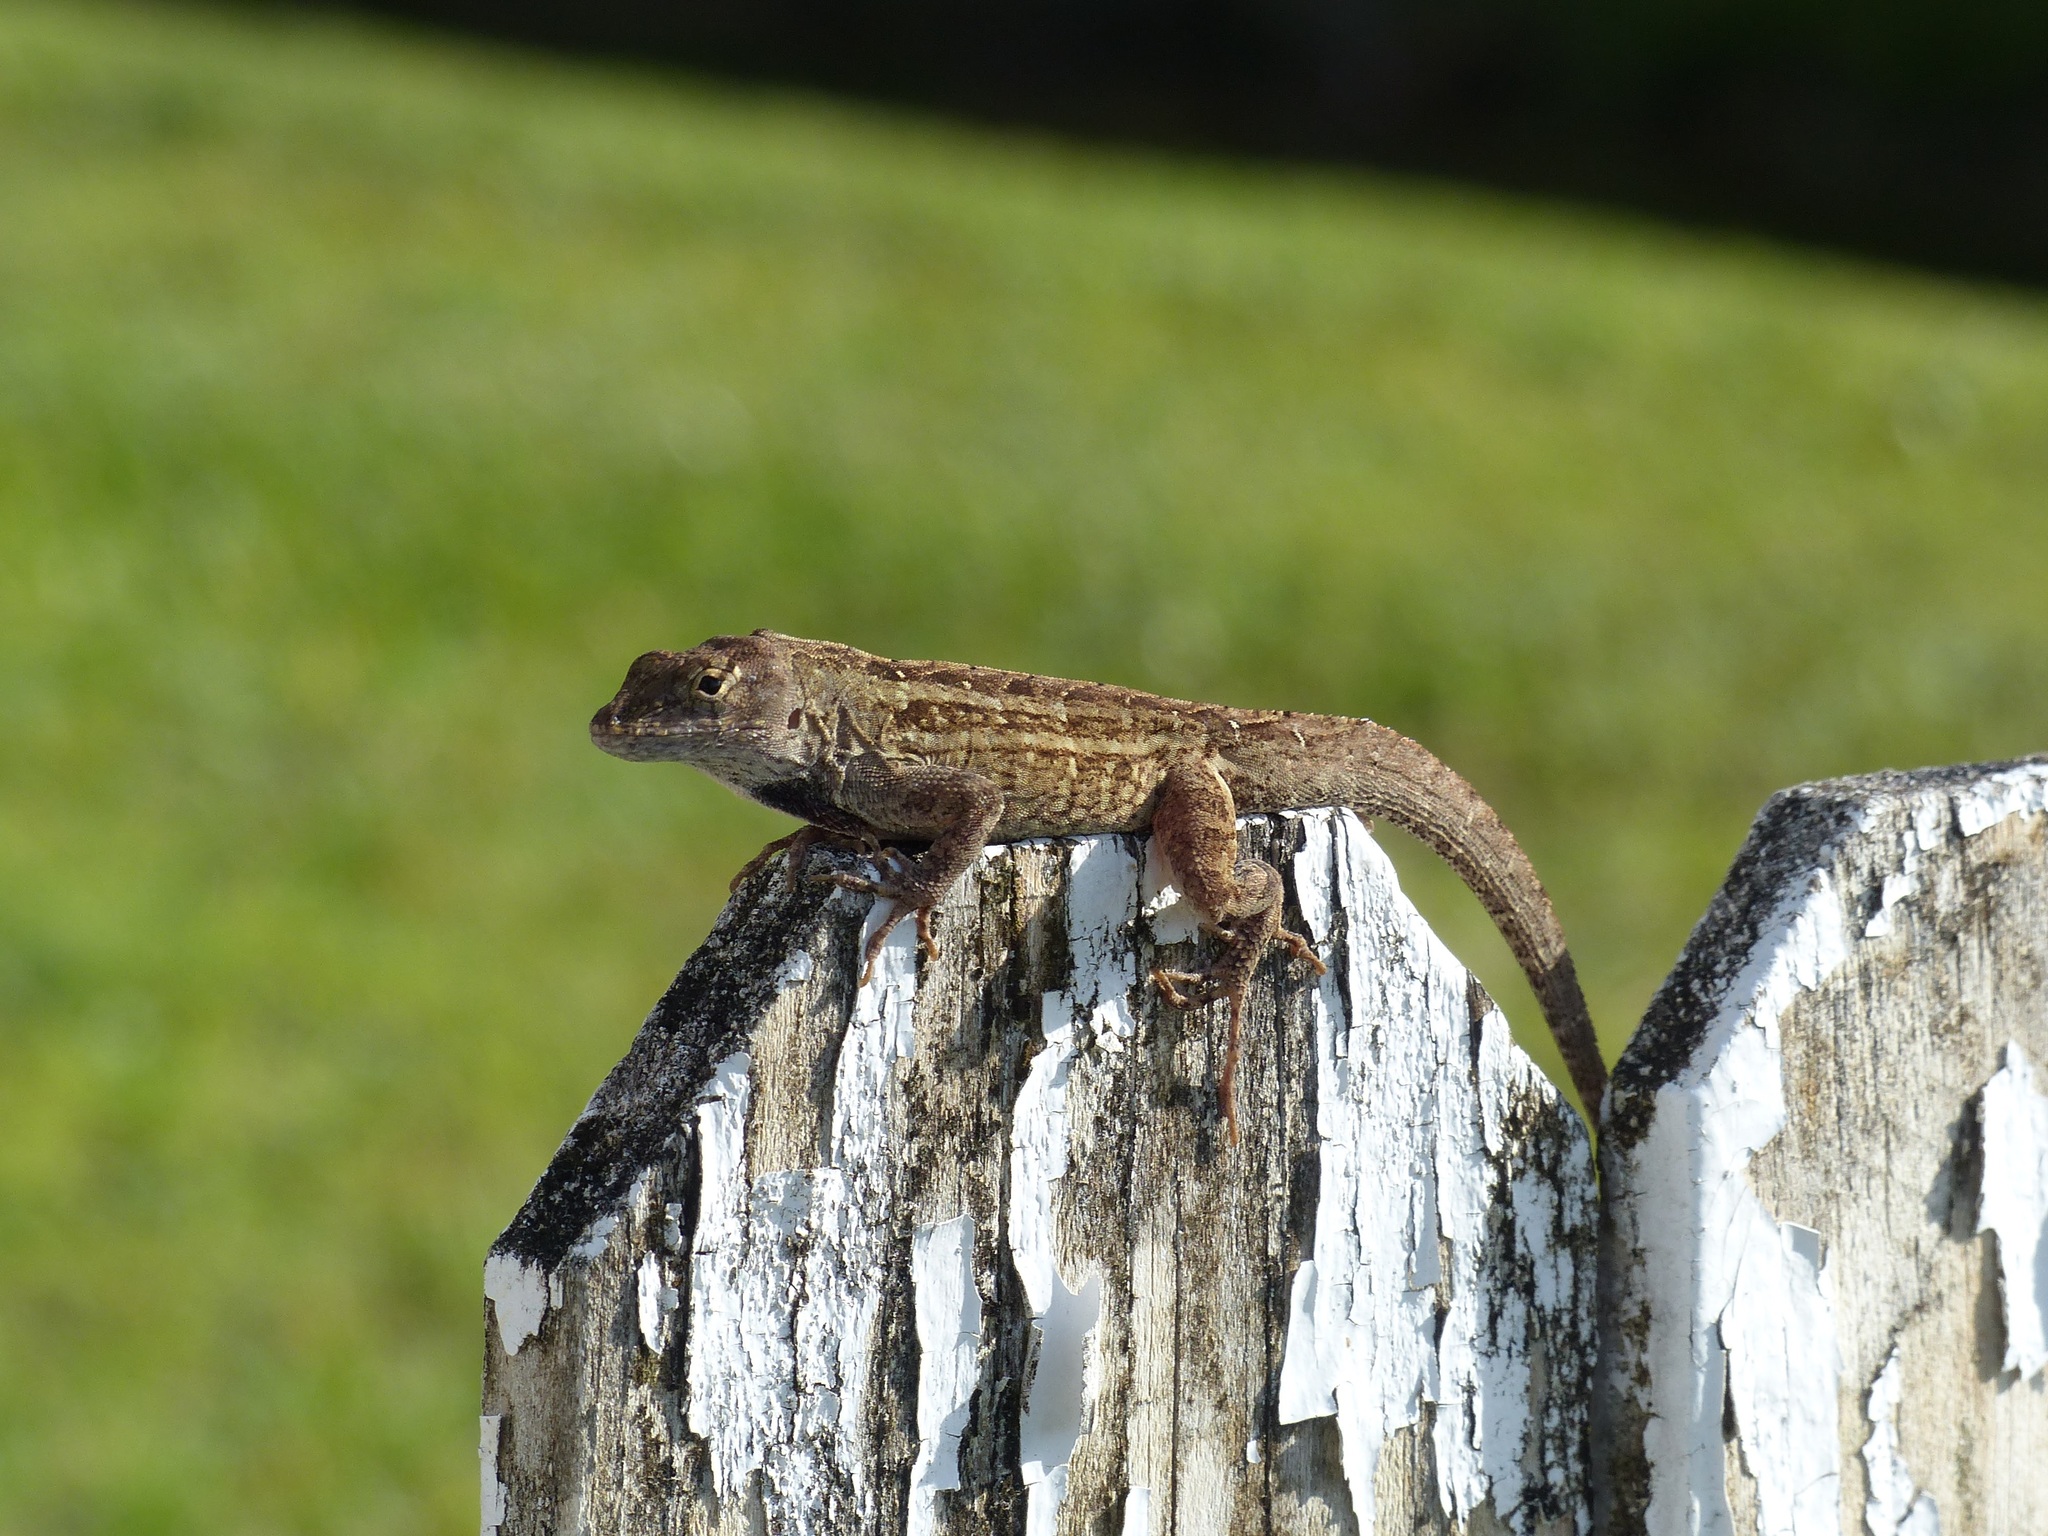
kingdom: Animalia
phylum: Chordata
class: Squamata
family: Dactyloidae
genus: Anolis
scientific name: Anolis sagrei
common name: Brown anole
